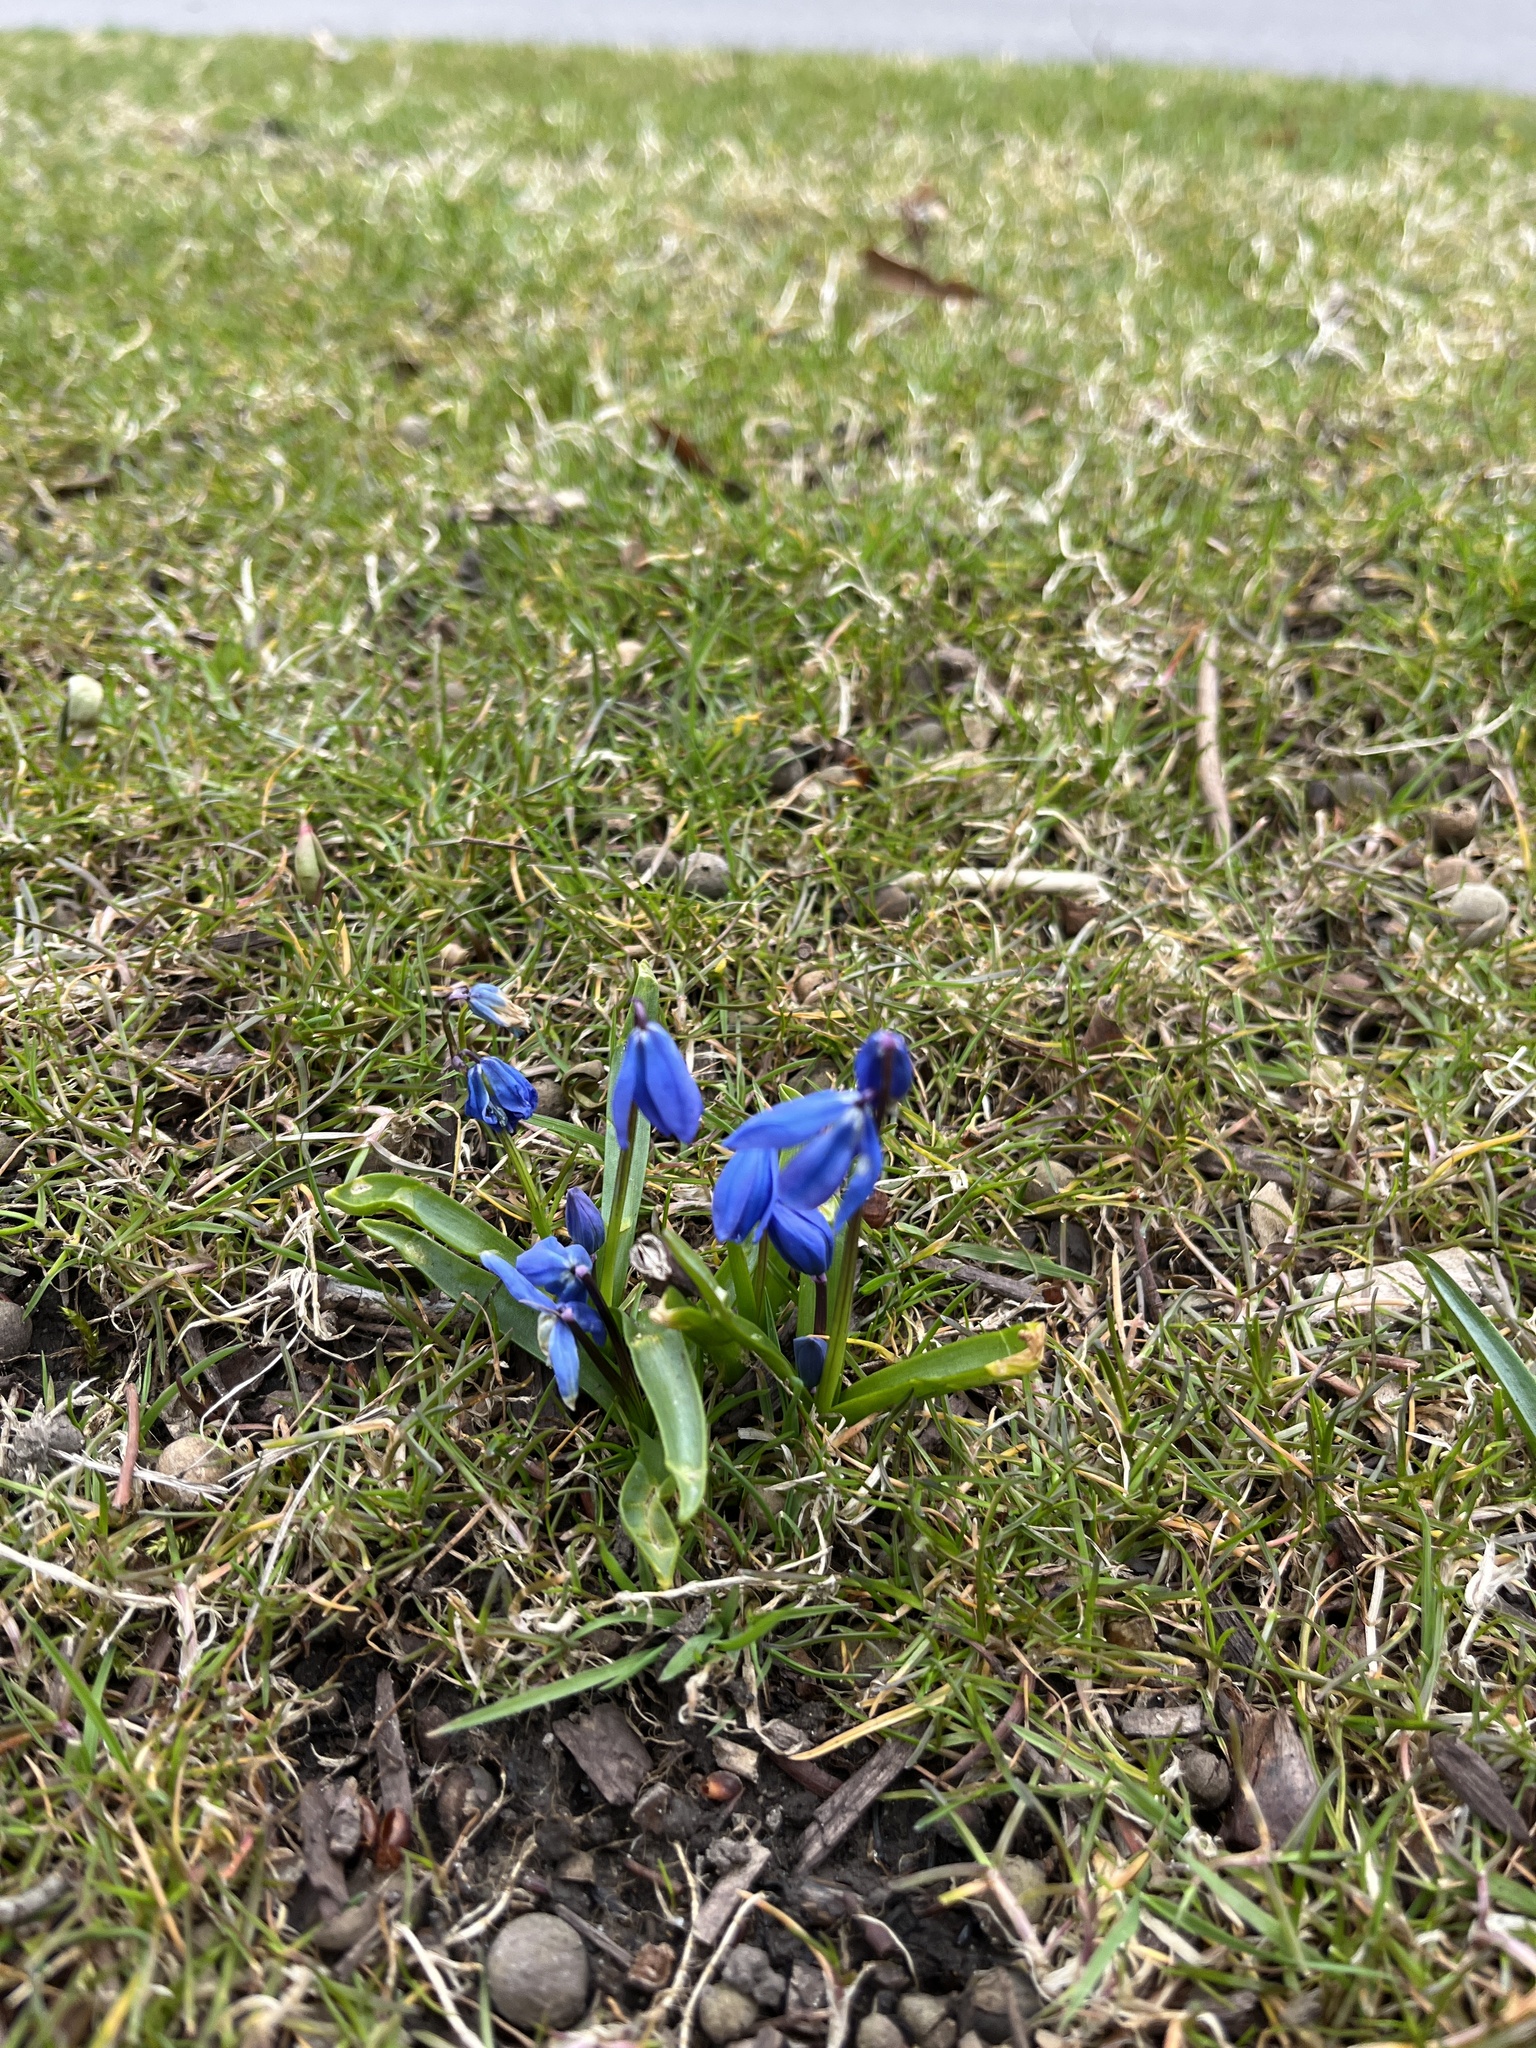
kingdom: Plantae
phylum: Tracheophyta
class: Liliopsida
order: Asparagales
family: Asparagaceae
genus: Scilla
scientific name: Scilla siberica
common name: Siberian squill
